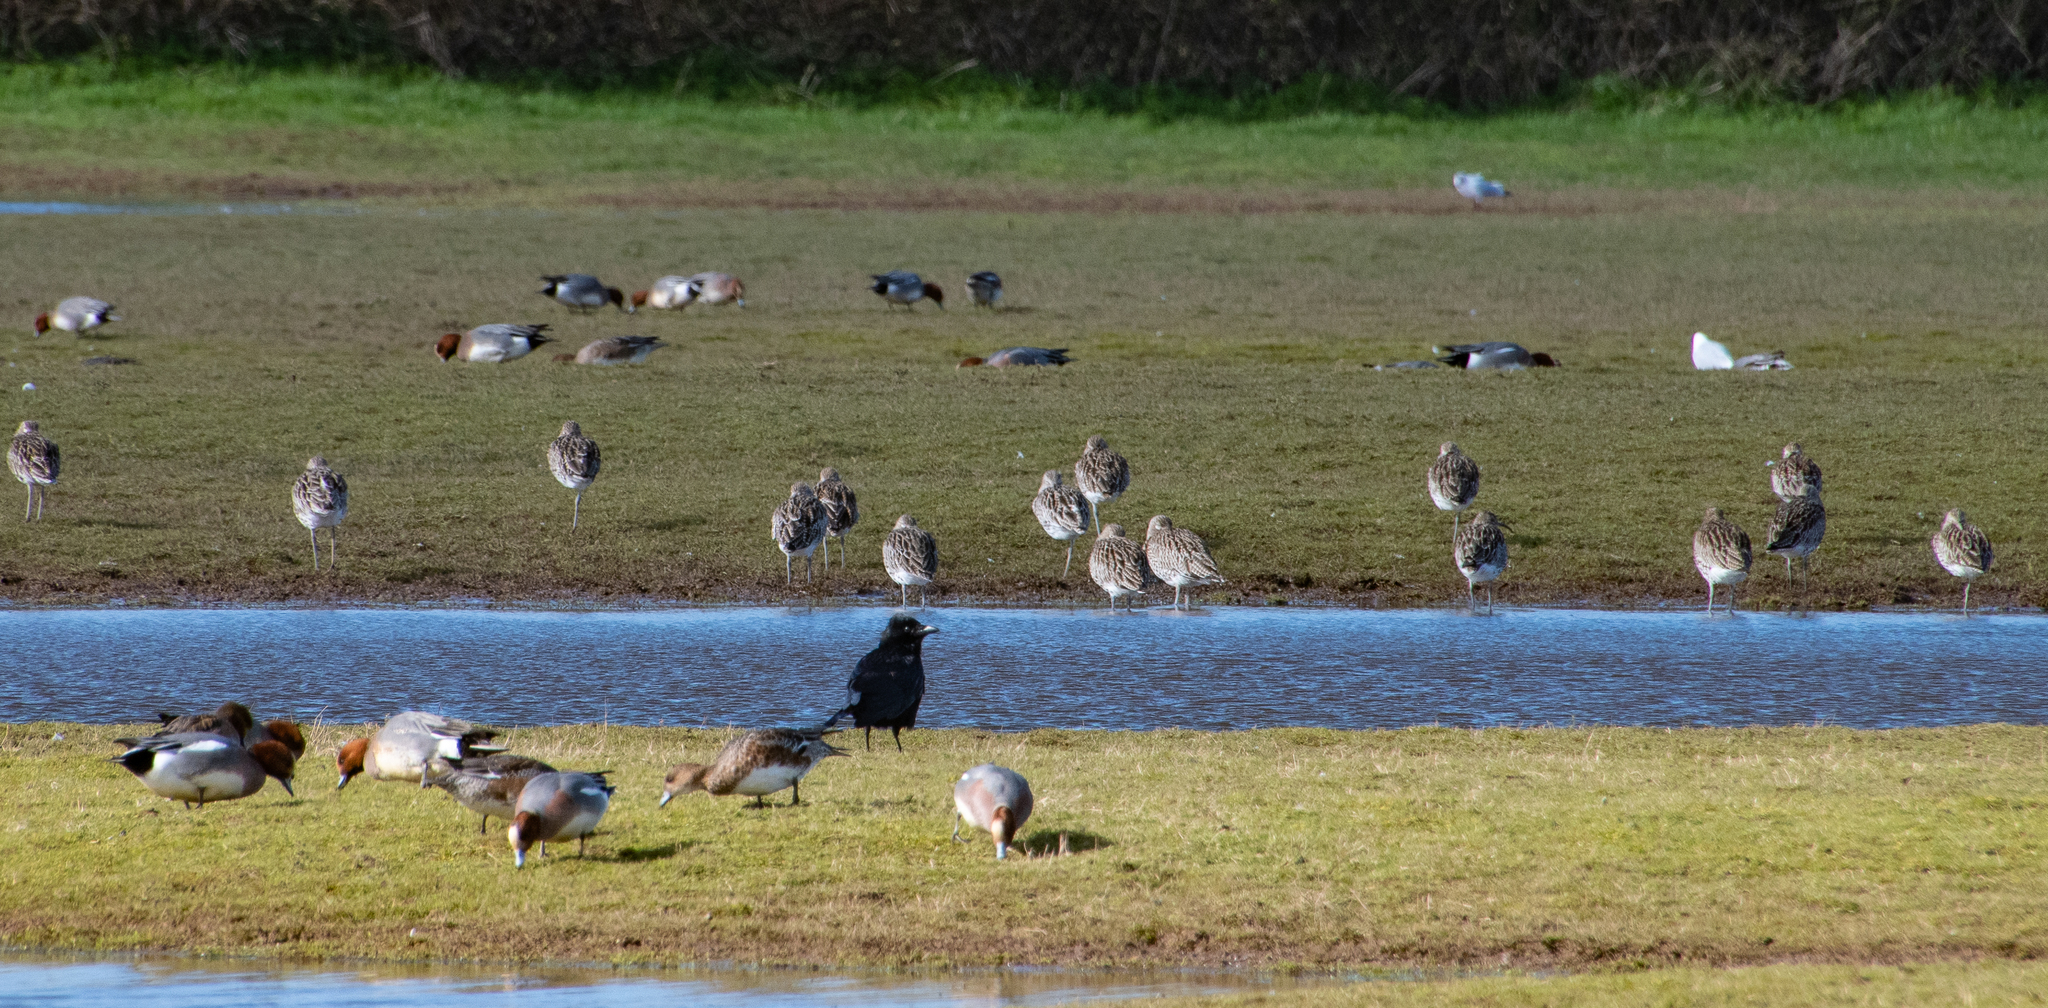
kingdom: Animalia
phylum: Chordata
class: Aves
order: Charadriiformes
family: Scolopacidae
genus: Numenius
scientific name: Numenius arquata
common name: Eurasian curlew
